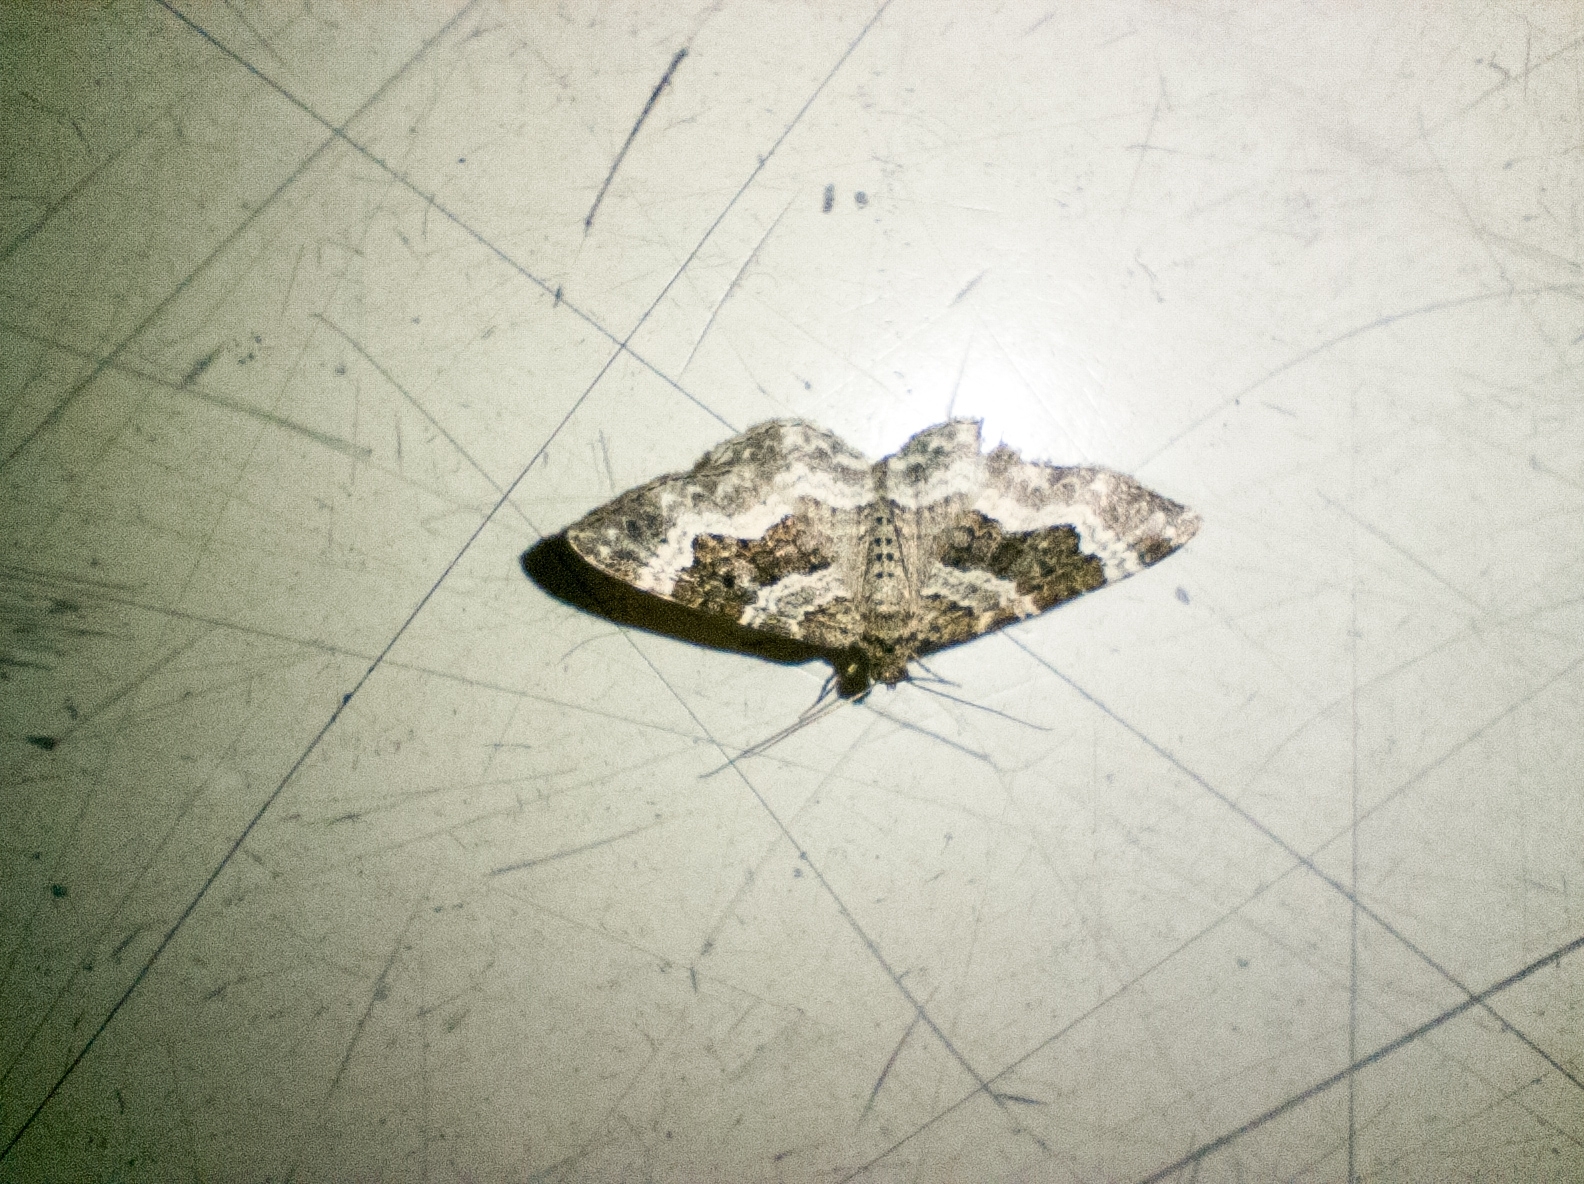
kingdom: Animalia
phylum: Arthropoda
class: Insecta
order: Lepidoptera
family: Geometridae
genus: Epirrhoe
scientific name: Epirrhoe alternata
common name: Common carpet
